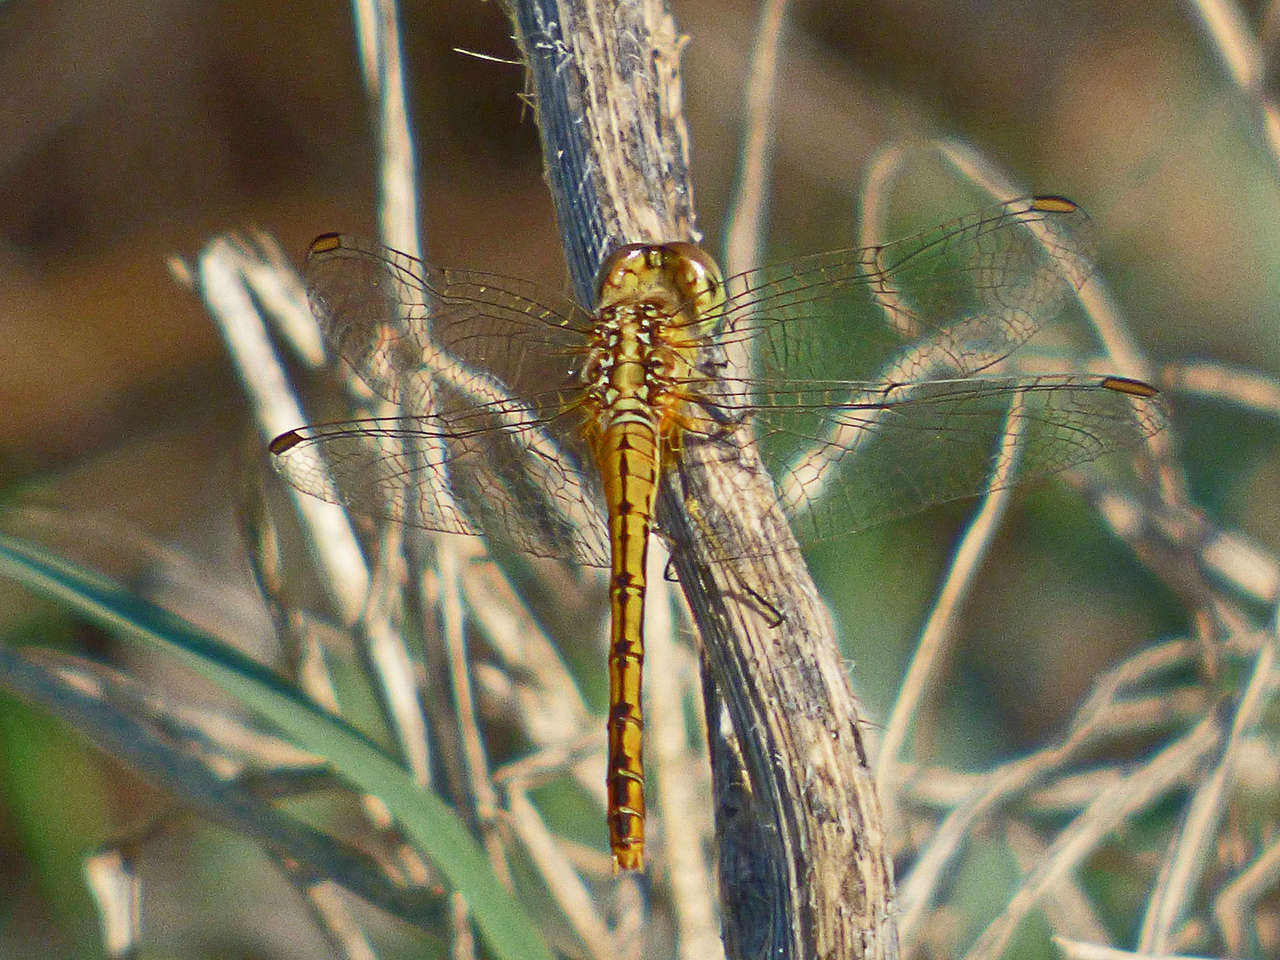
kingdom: Animalia
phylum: Arthropoda
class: Insecta
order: Odonata
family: Libellulidae
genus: Diplacodes
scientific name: Diplacodes bipunctata
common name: Red percher dragonfly
